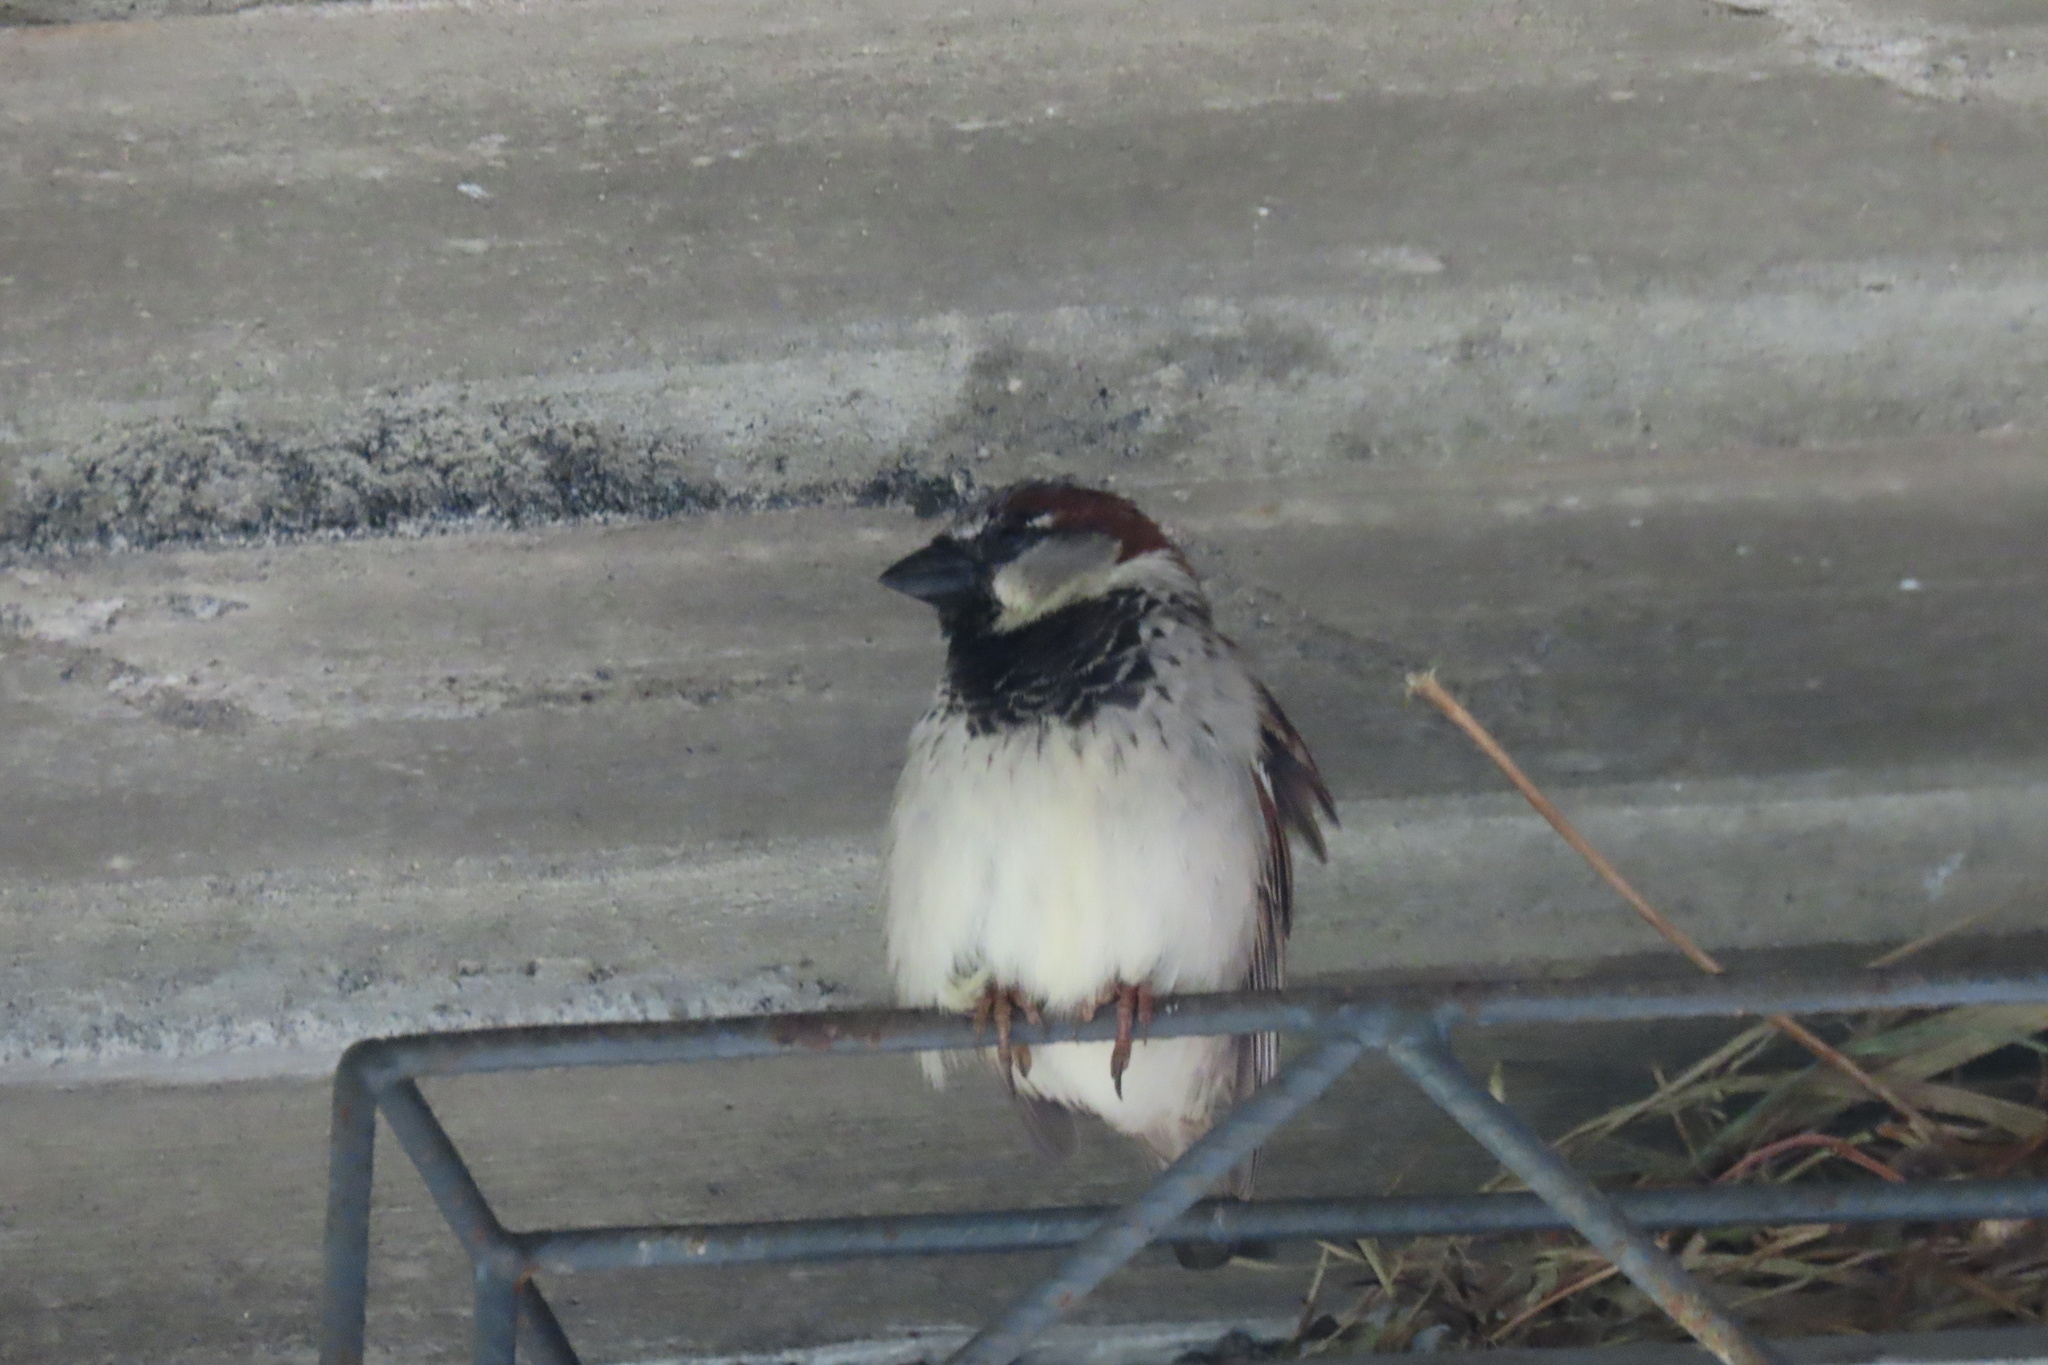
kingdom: Animalia
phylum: Chordata
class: Aves
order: Passeriformes
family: Passeridae
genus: Passer
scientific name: Passer domesticus
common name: House sparrow
